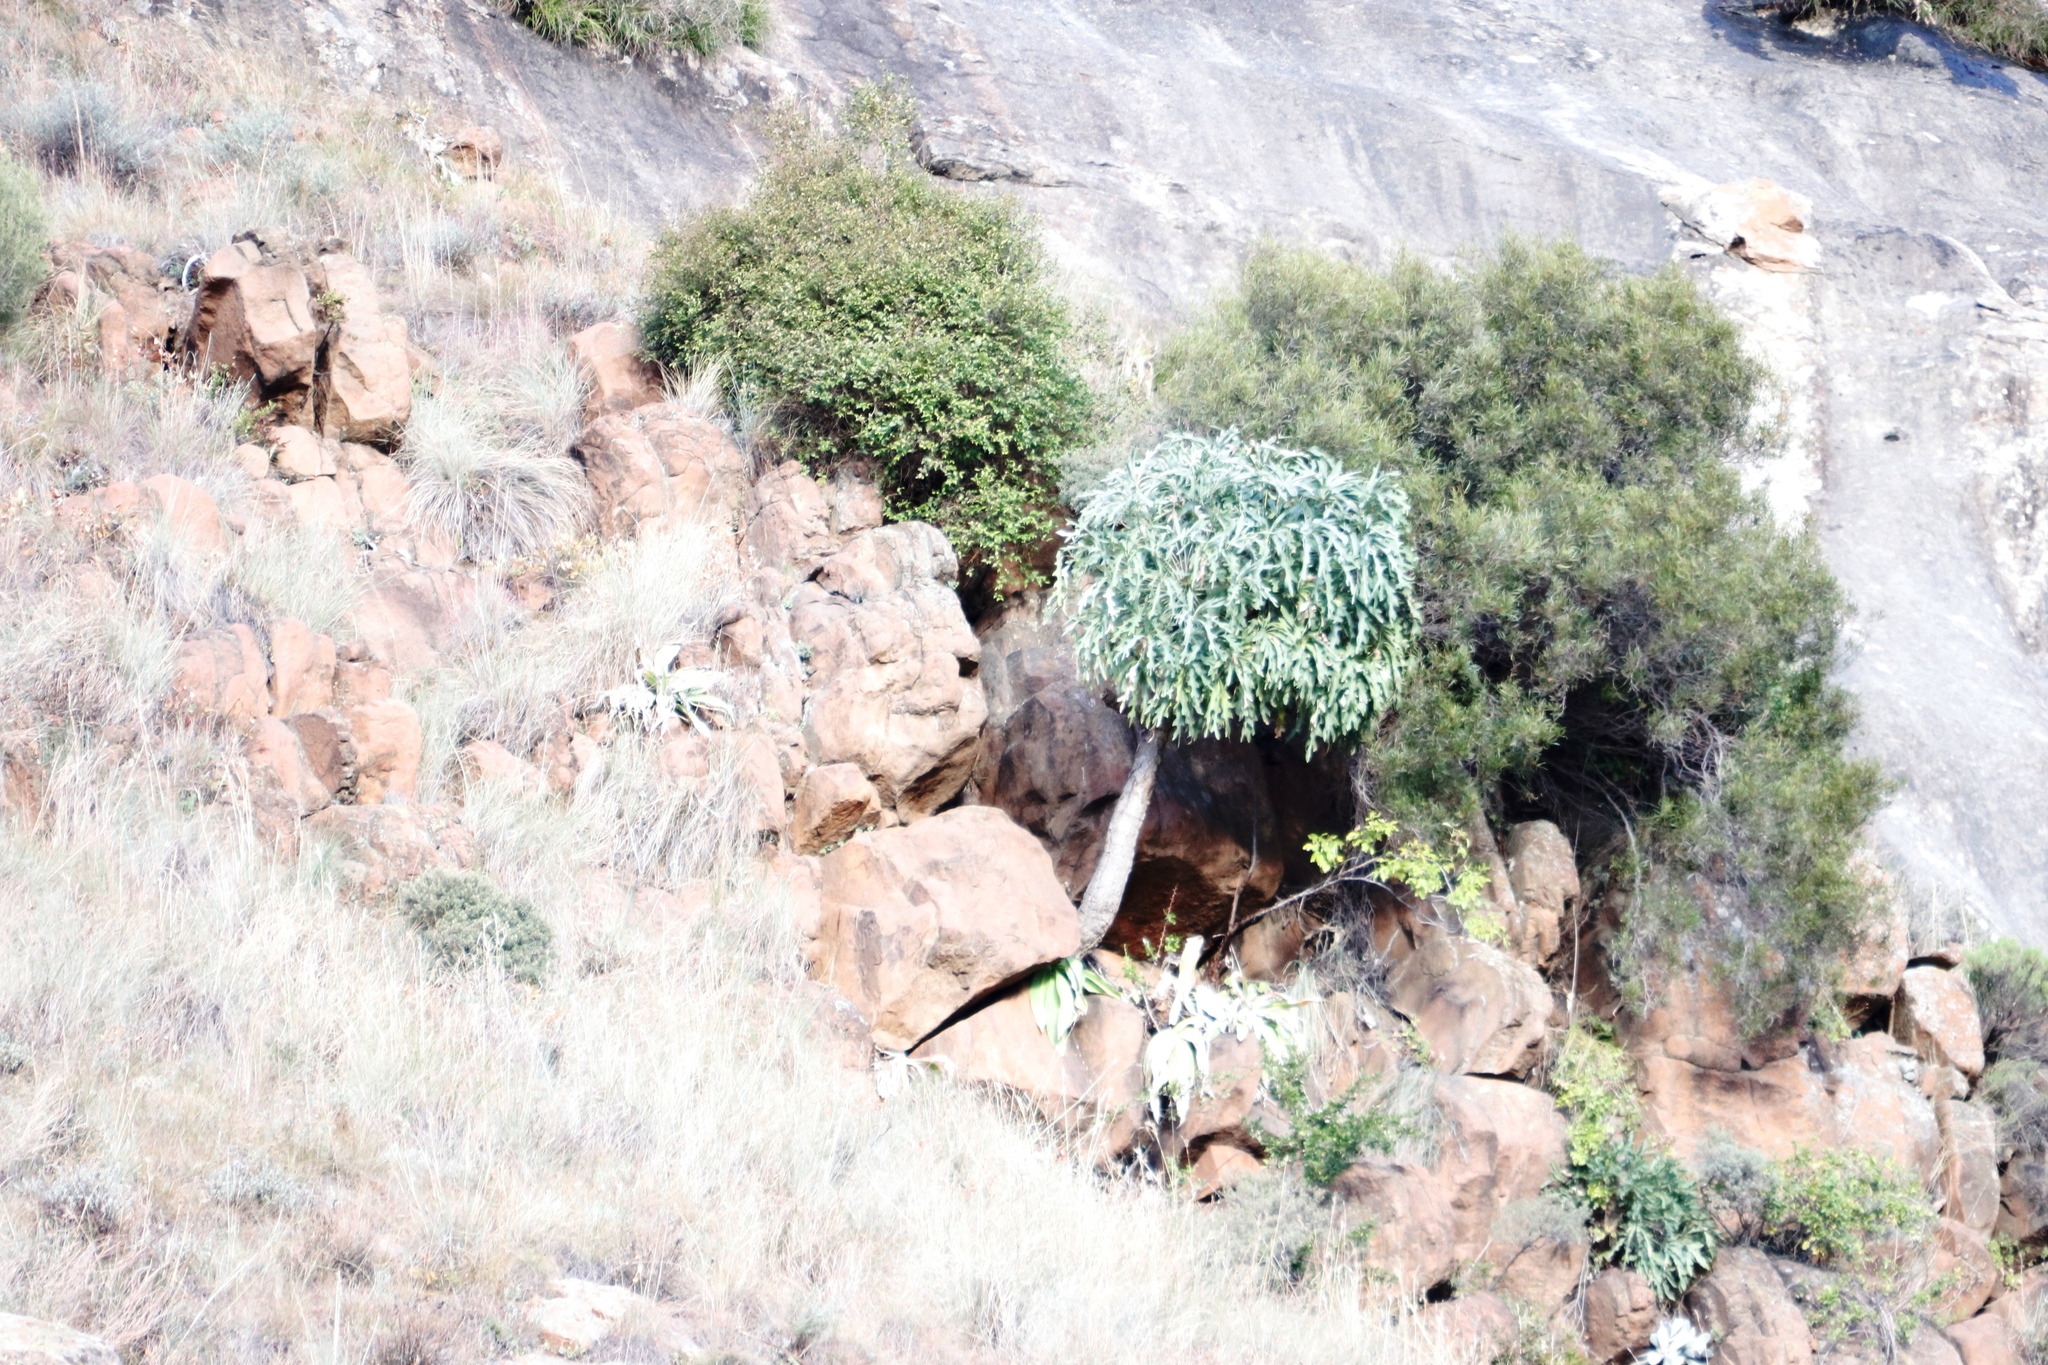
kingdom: Plantae
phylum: Tracheophyta
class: Magnoliopsida
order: Apiales
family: Araliaceae
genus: Cussonia
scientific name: Cussonia paniculata
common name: Cabbagetree
